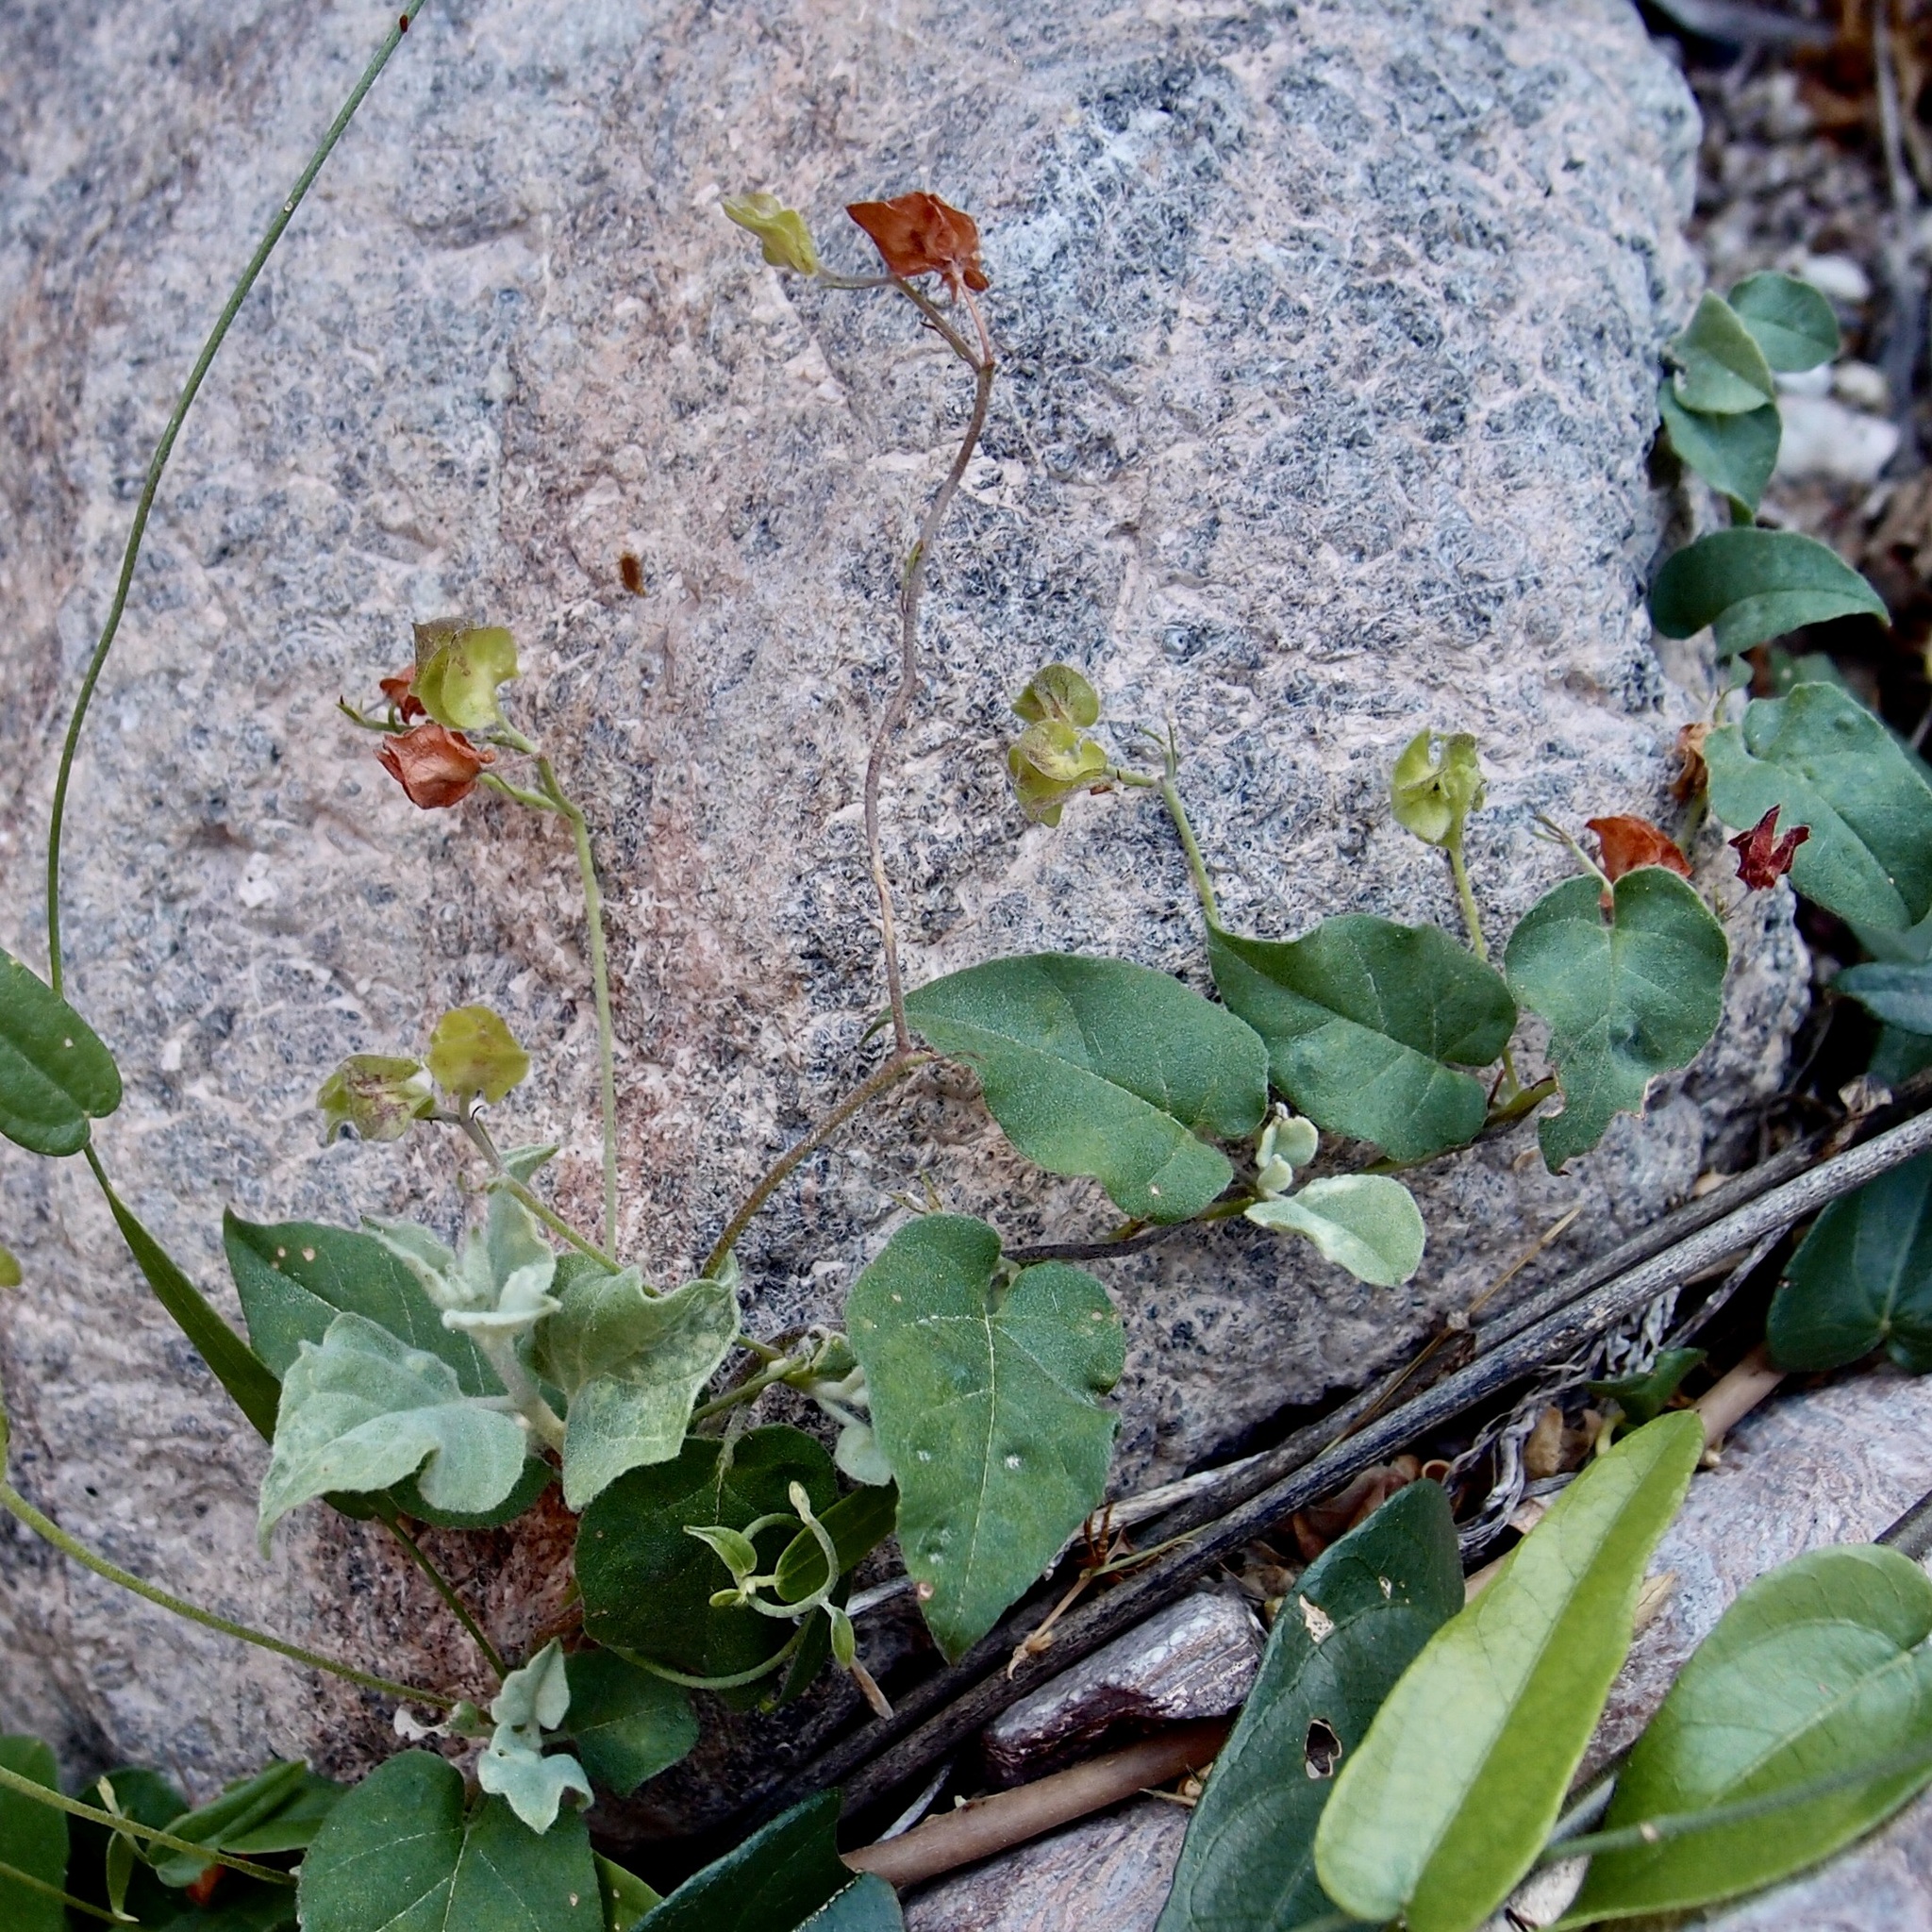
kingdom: Plantae
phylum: Tracheophyta
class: Magnoliopsida
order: Solanales
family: Convolvulaceae
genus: Jacquemontia
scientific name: Jacquemontia pringlei
